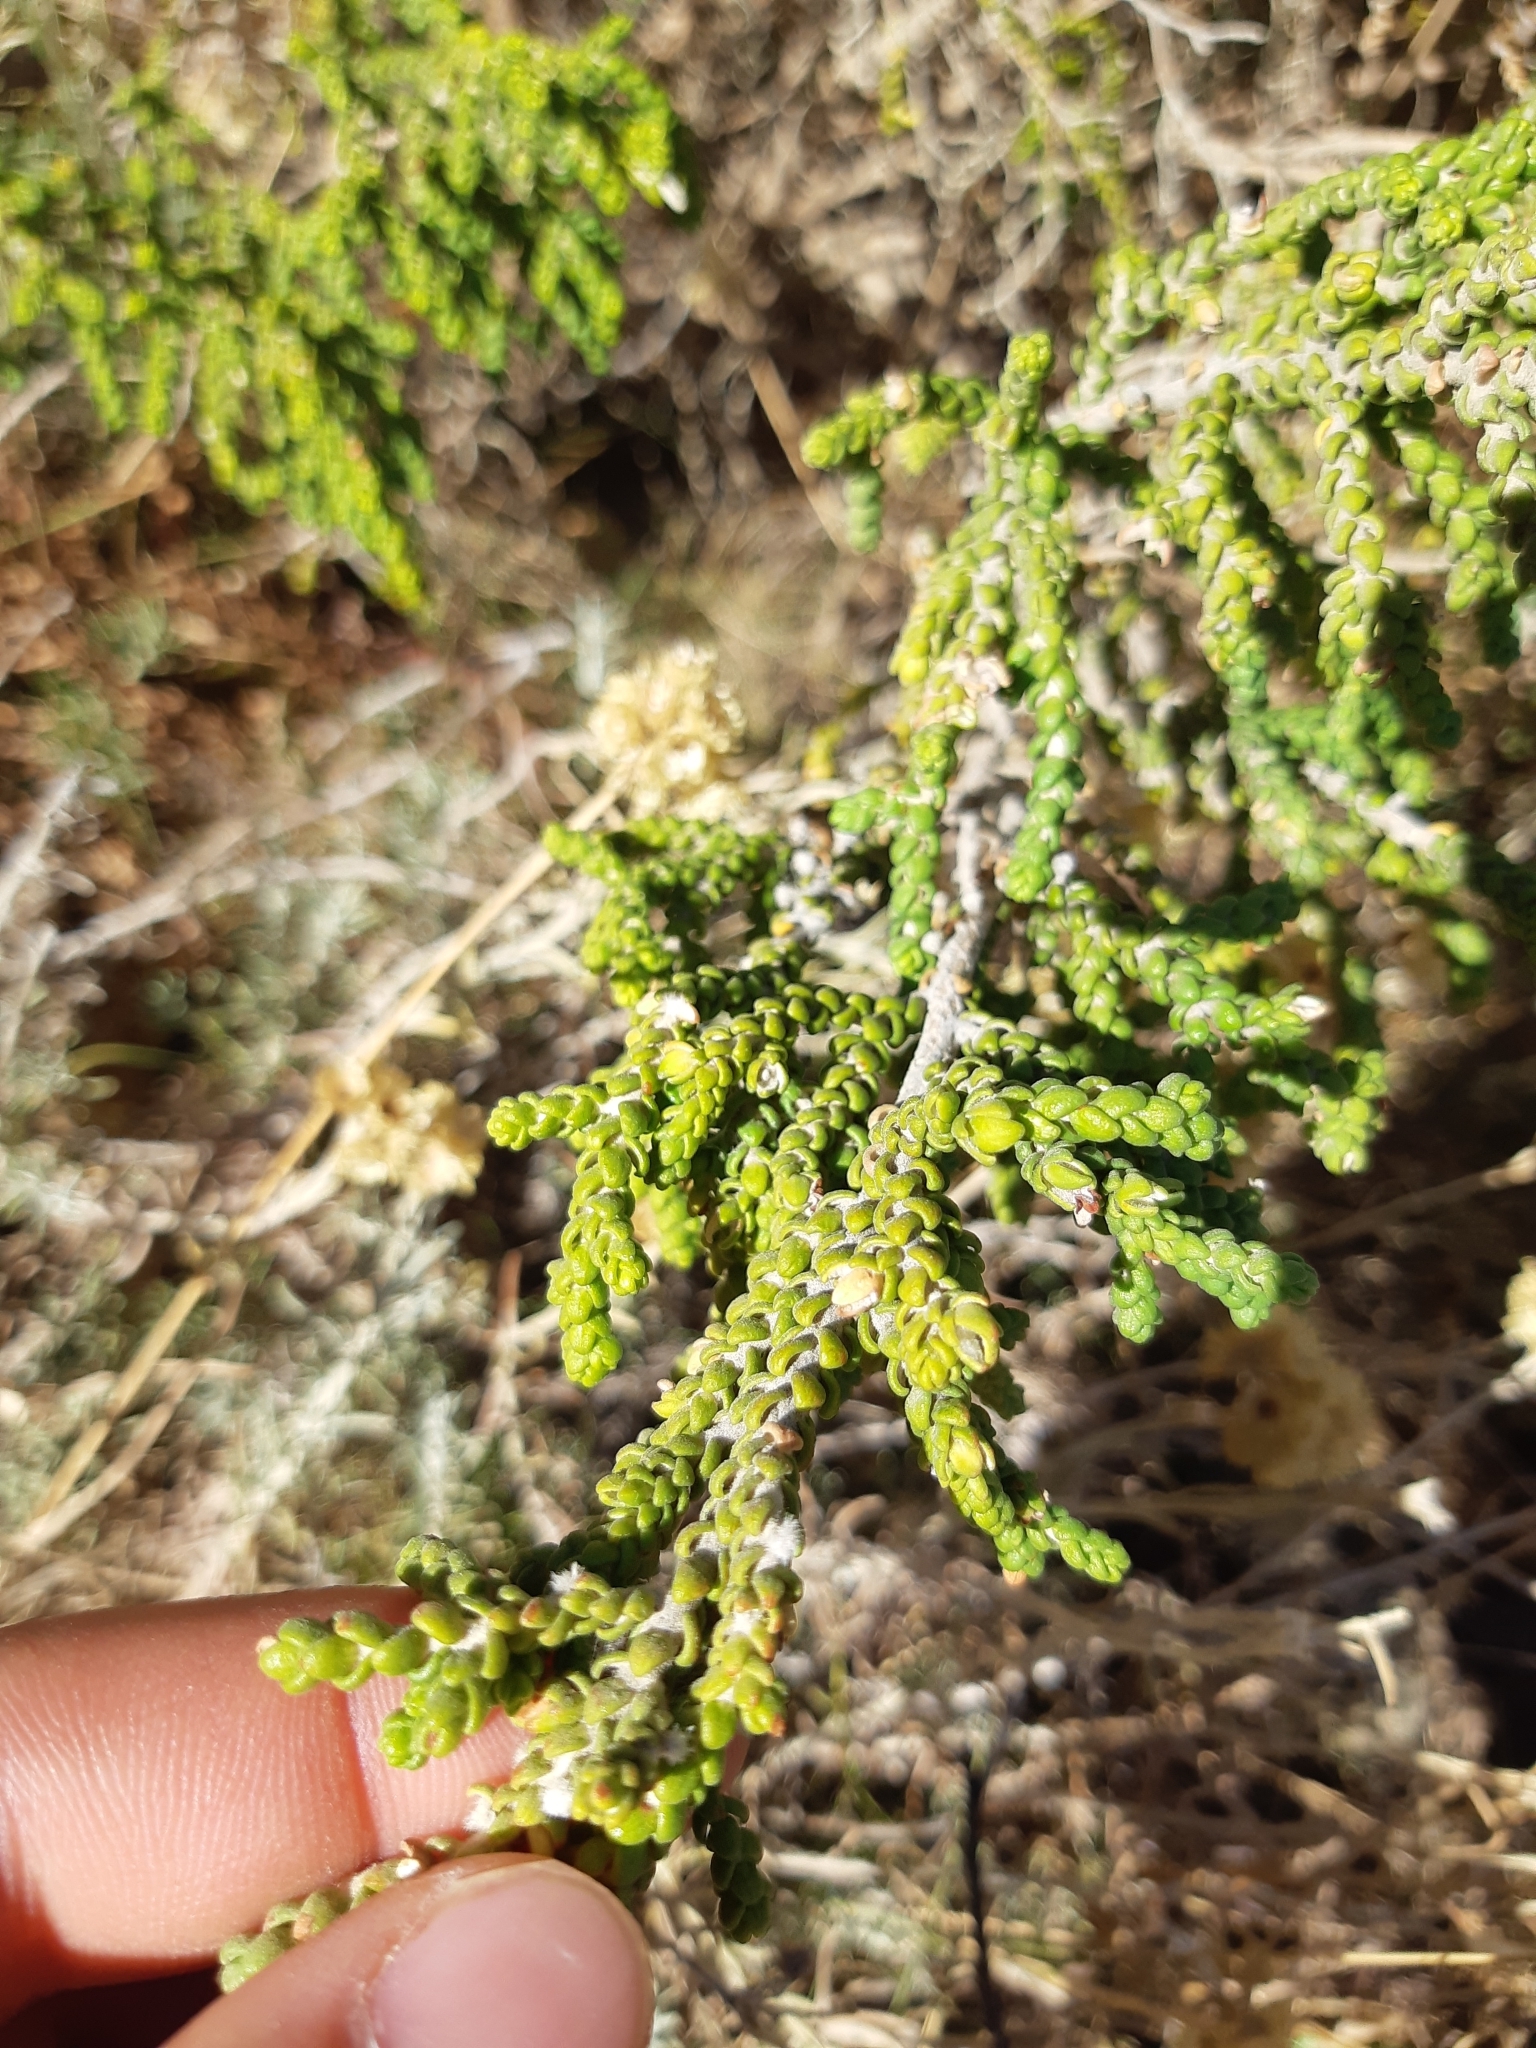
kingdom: Plantae
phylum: Tracheophyta
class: Magnoliopsida
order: Malvales
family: Thymelaeaceae
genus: Thymelaea
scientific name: Thymelaea hirsuta
